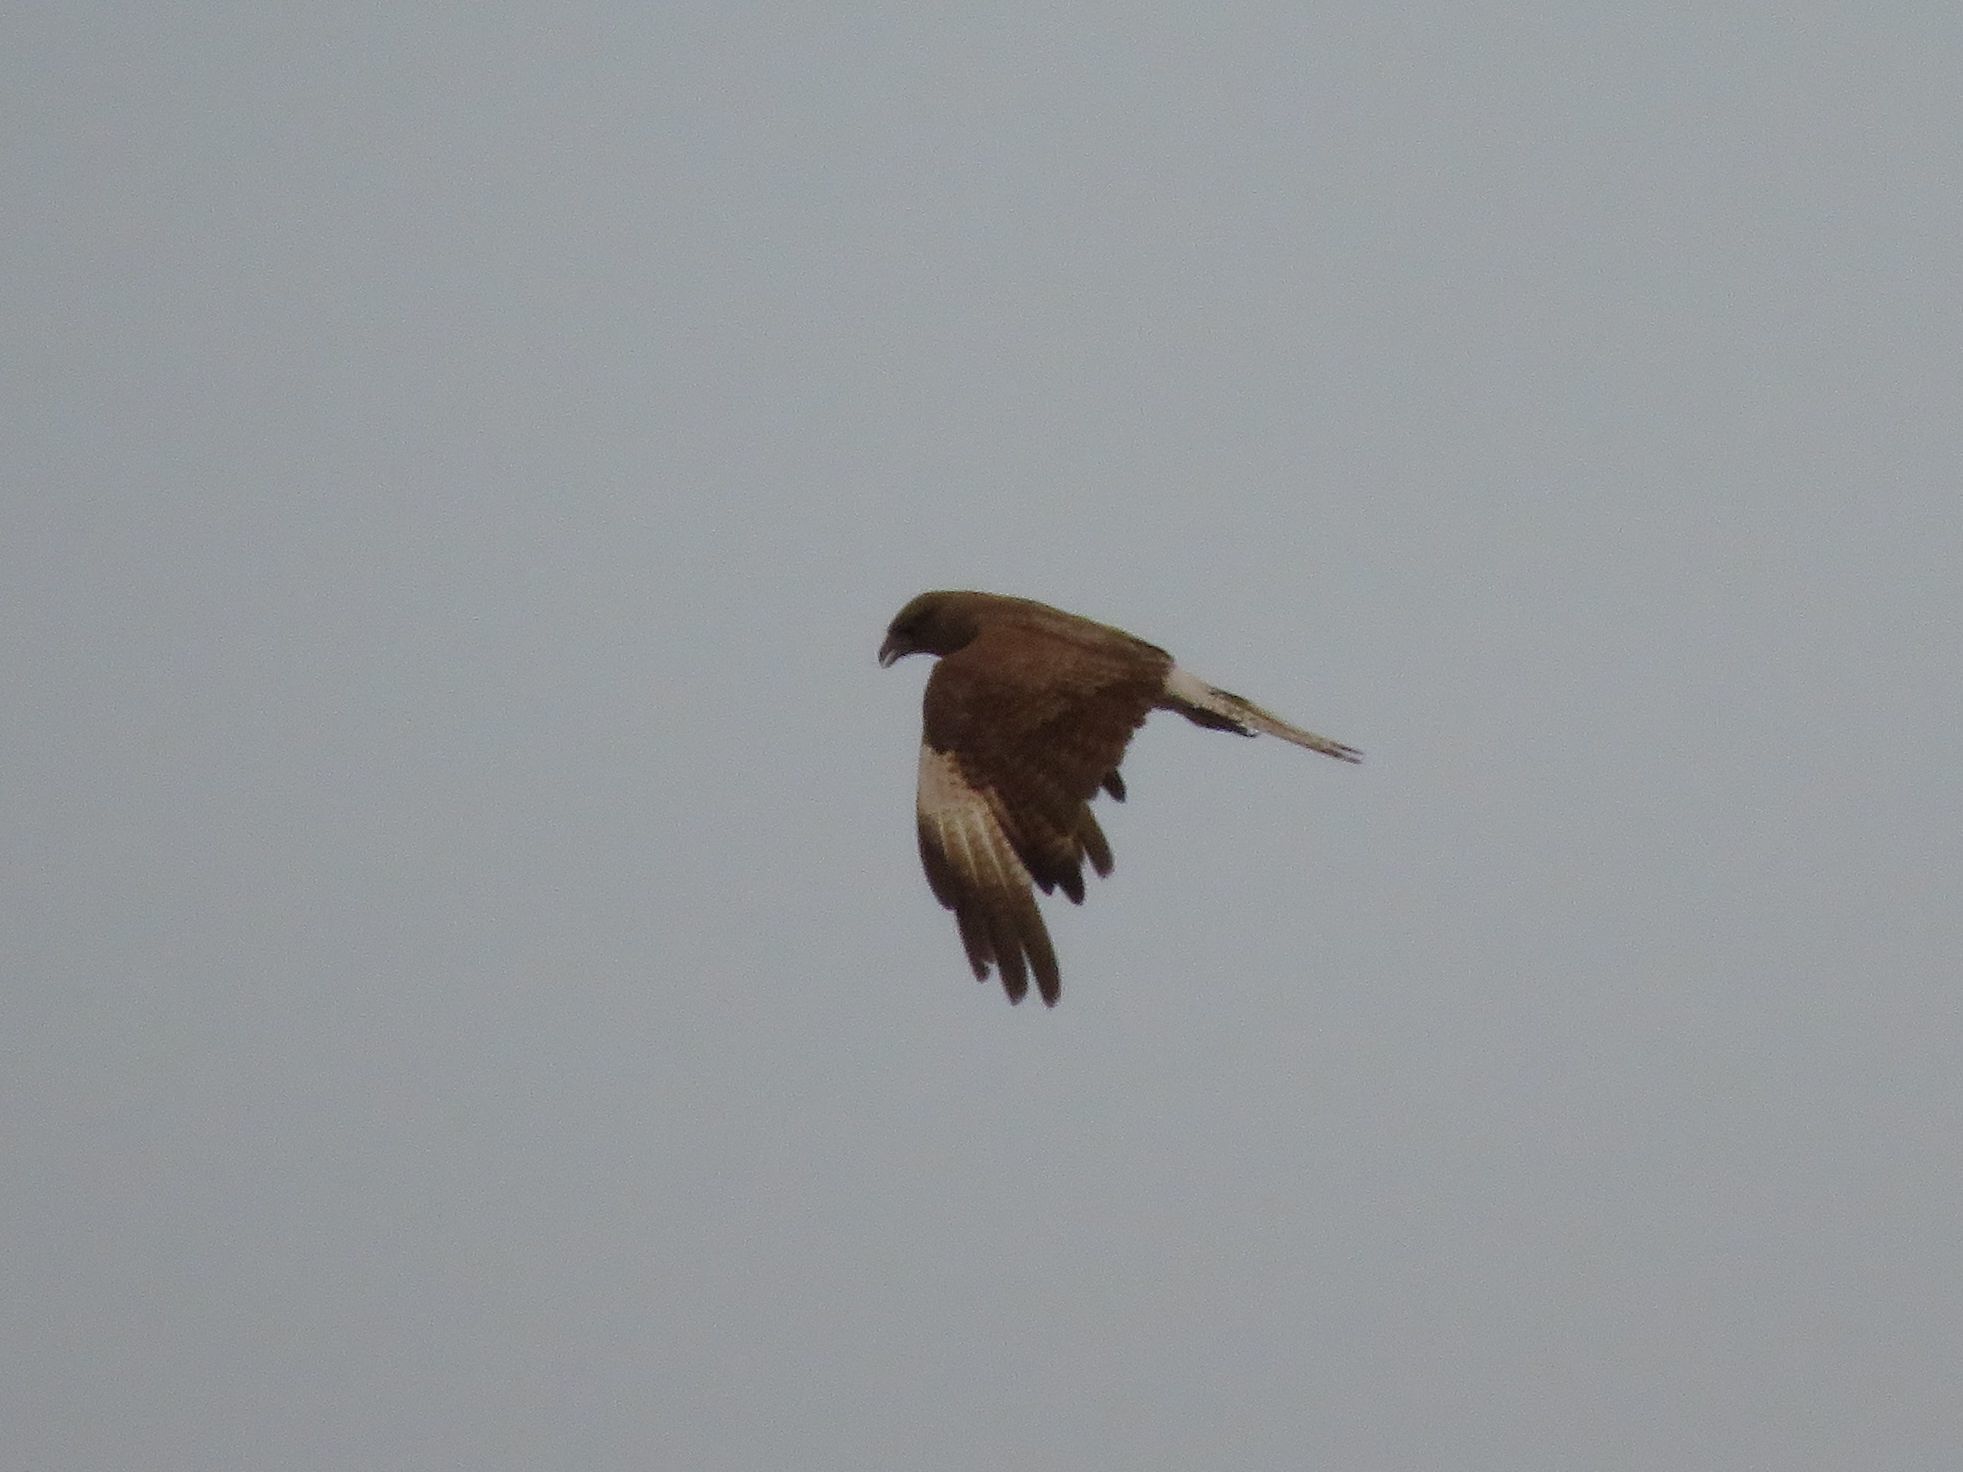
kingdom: Animalia
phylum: Chordata
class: Aves
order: Falconiformes
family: Falconidae
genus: Daptrius
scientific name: Daptrius
